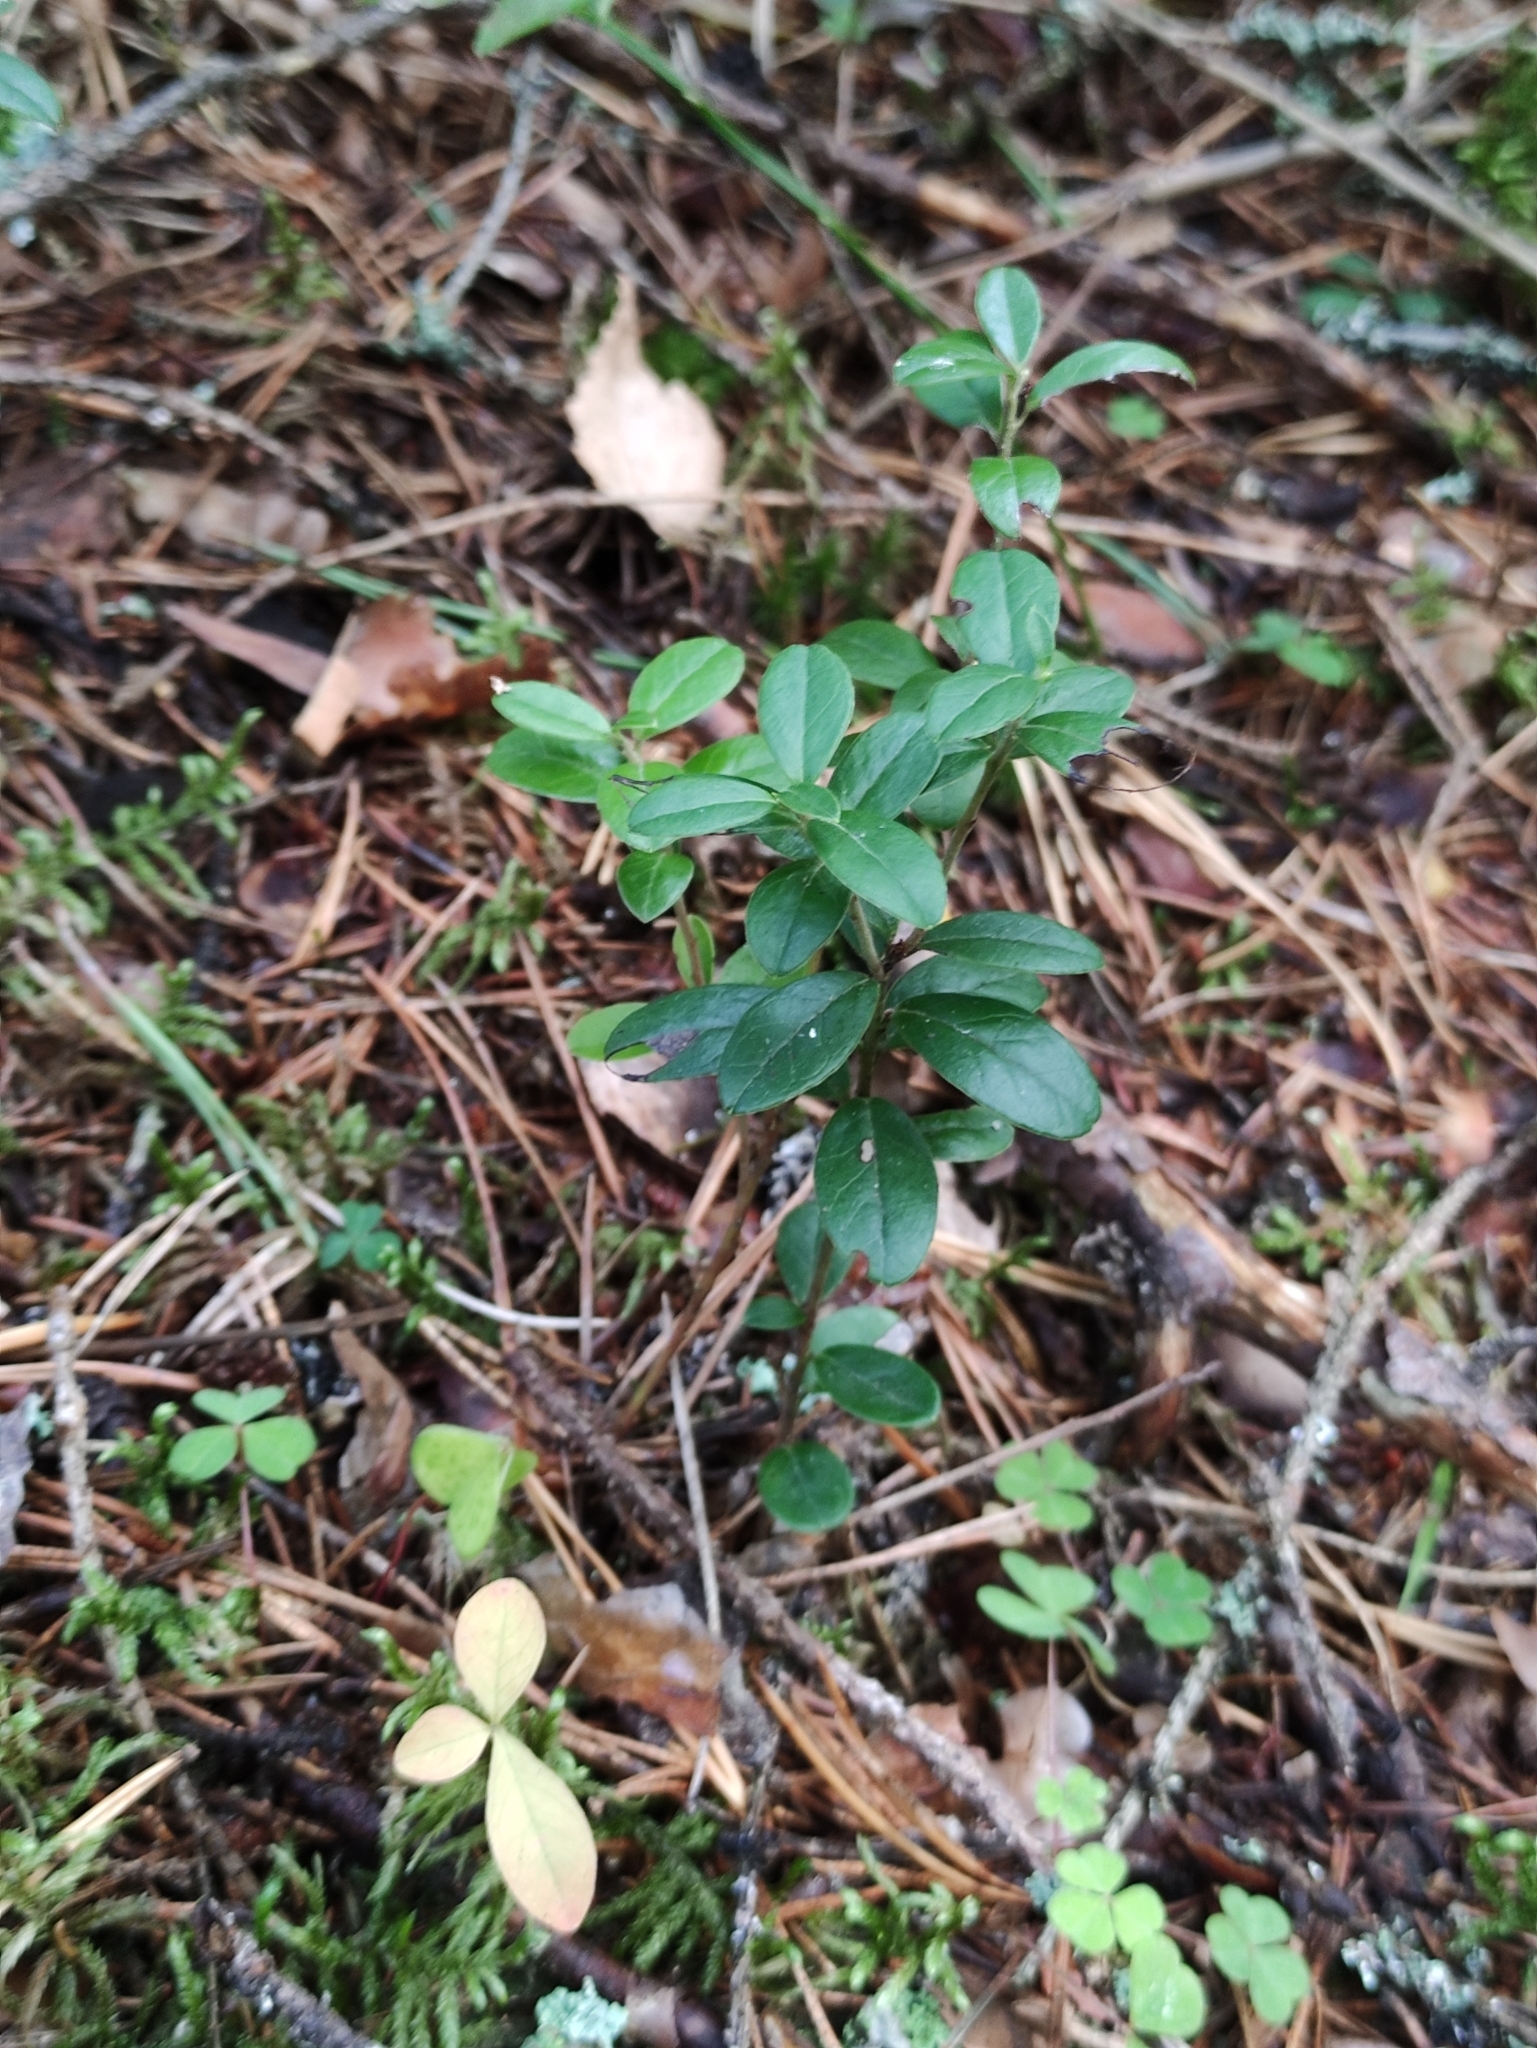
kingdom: Plantae
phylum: Tracheophyta
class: Magnoliopsida
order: Ericales
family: Ericaceae
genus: Vaccinium
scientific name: Vaccinium vitis-idaea
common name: Cowberry
